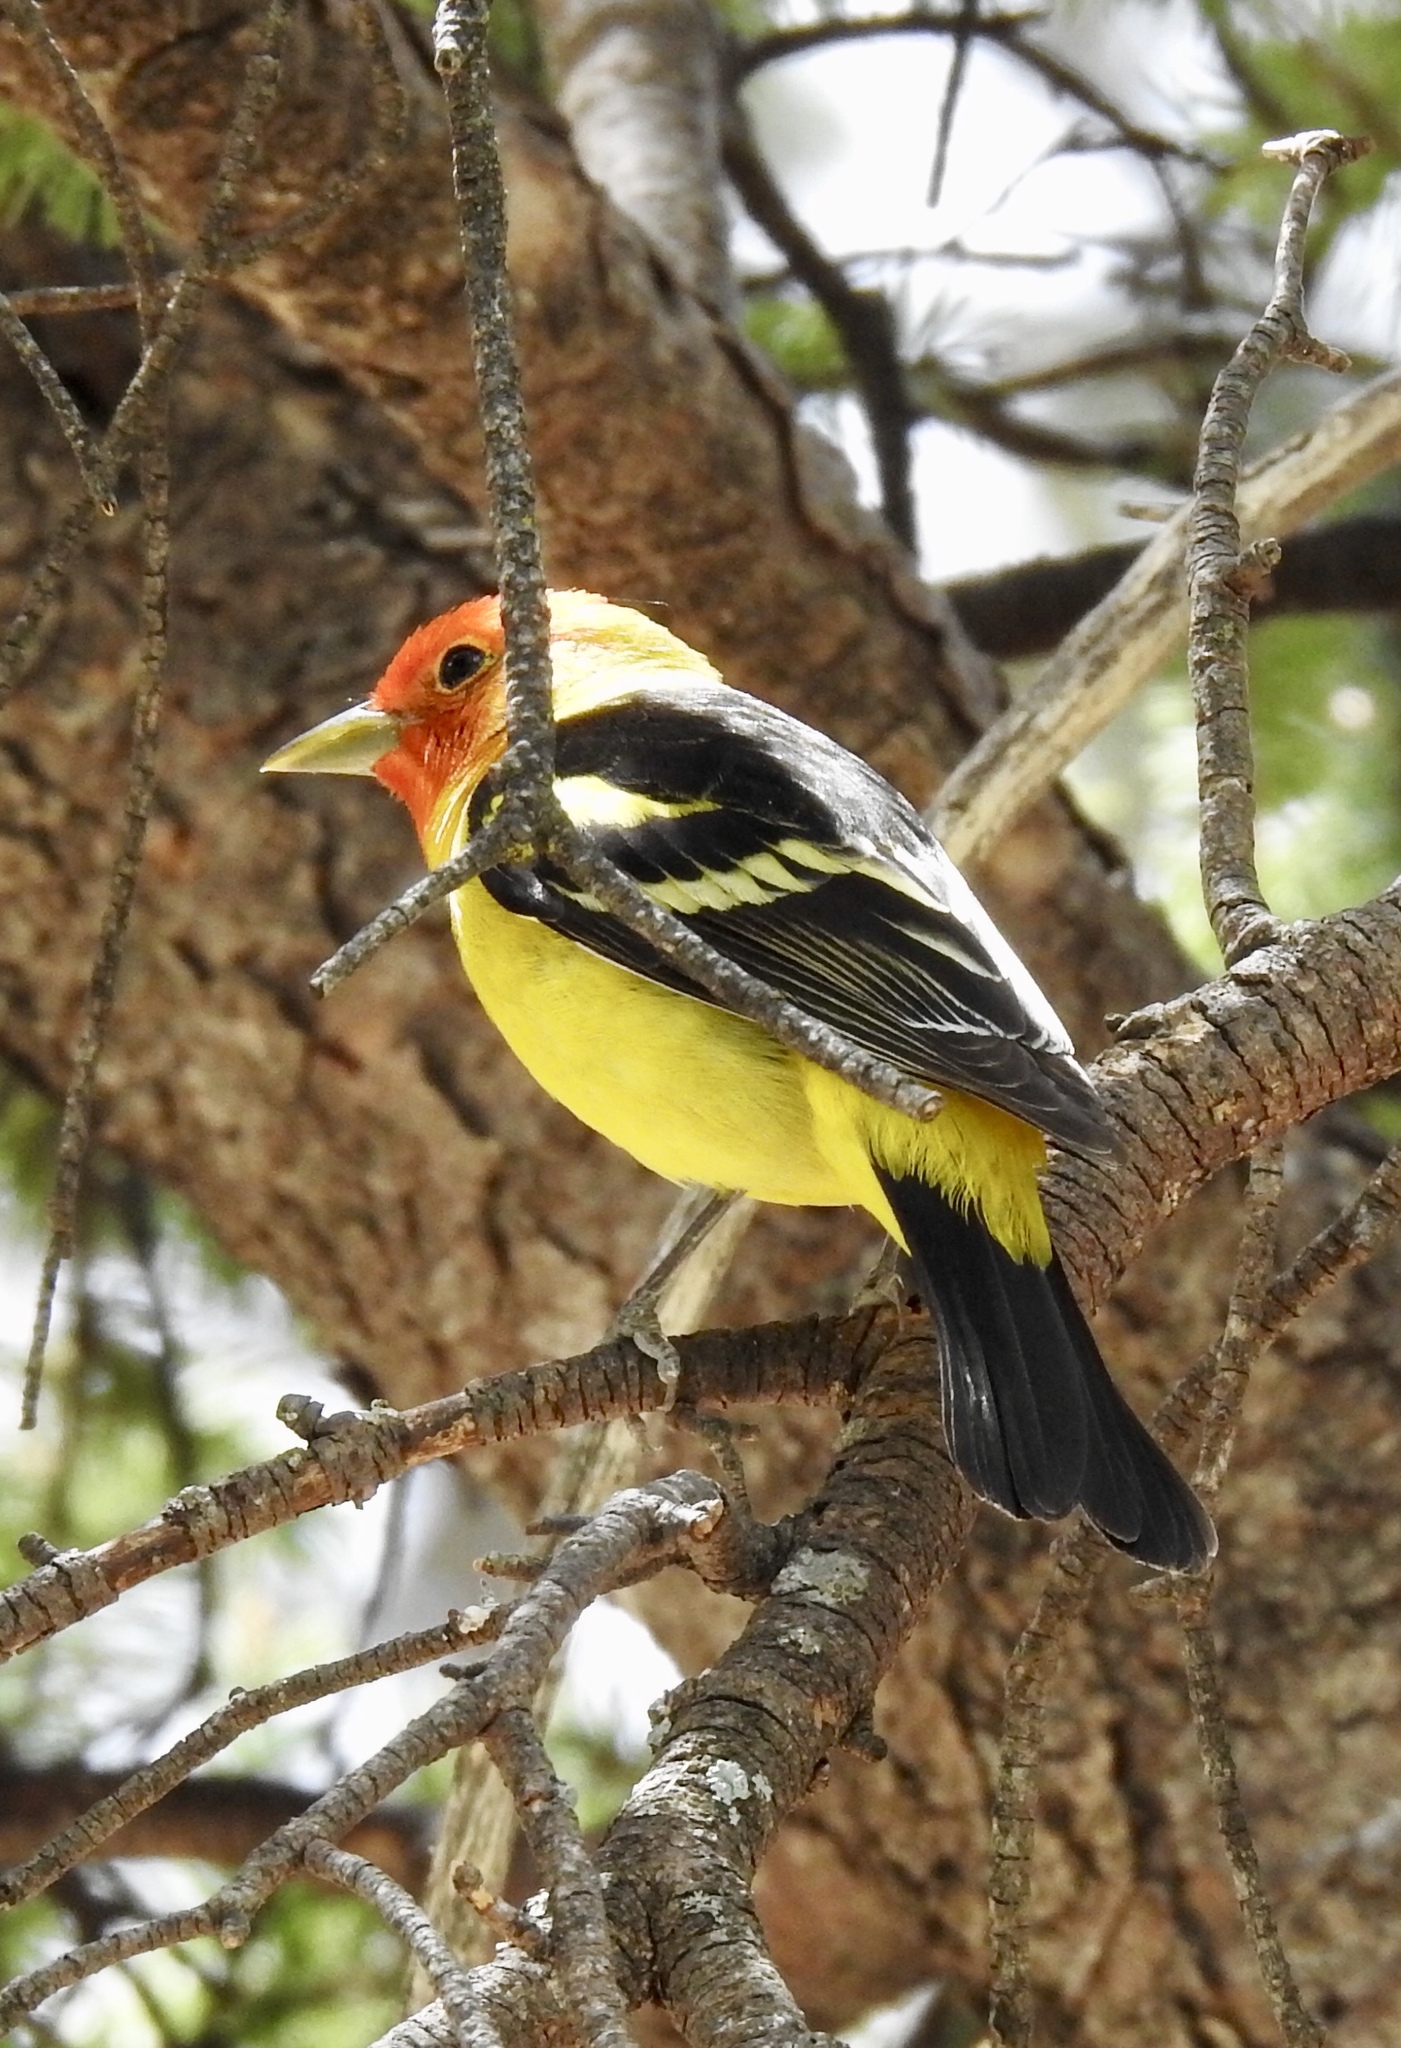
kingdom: Animalia
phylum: Chordata
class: Aves
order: Passeriformes
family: Cardinalidae
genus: Piranga
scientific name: Piranga ludoviciana
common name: Western tanager
